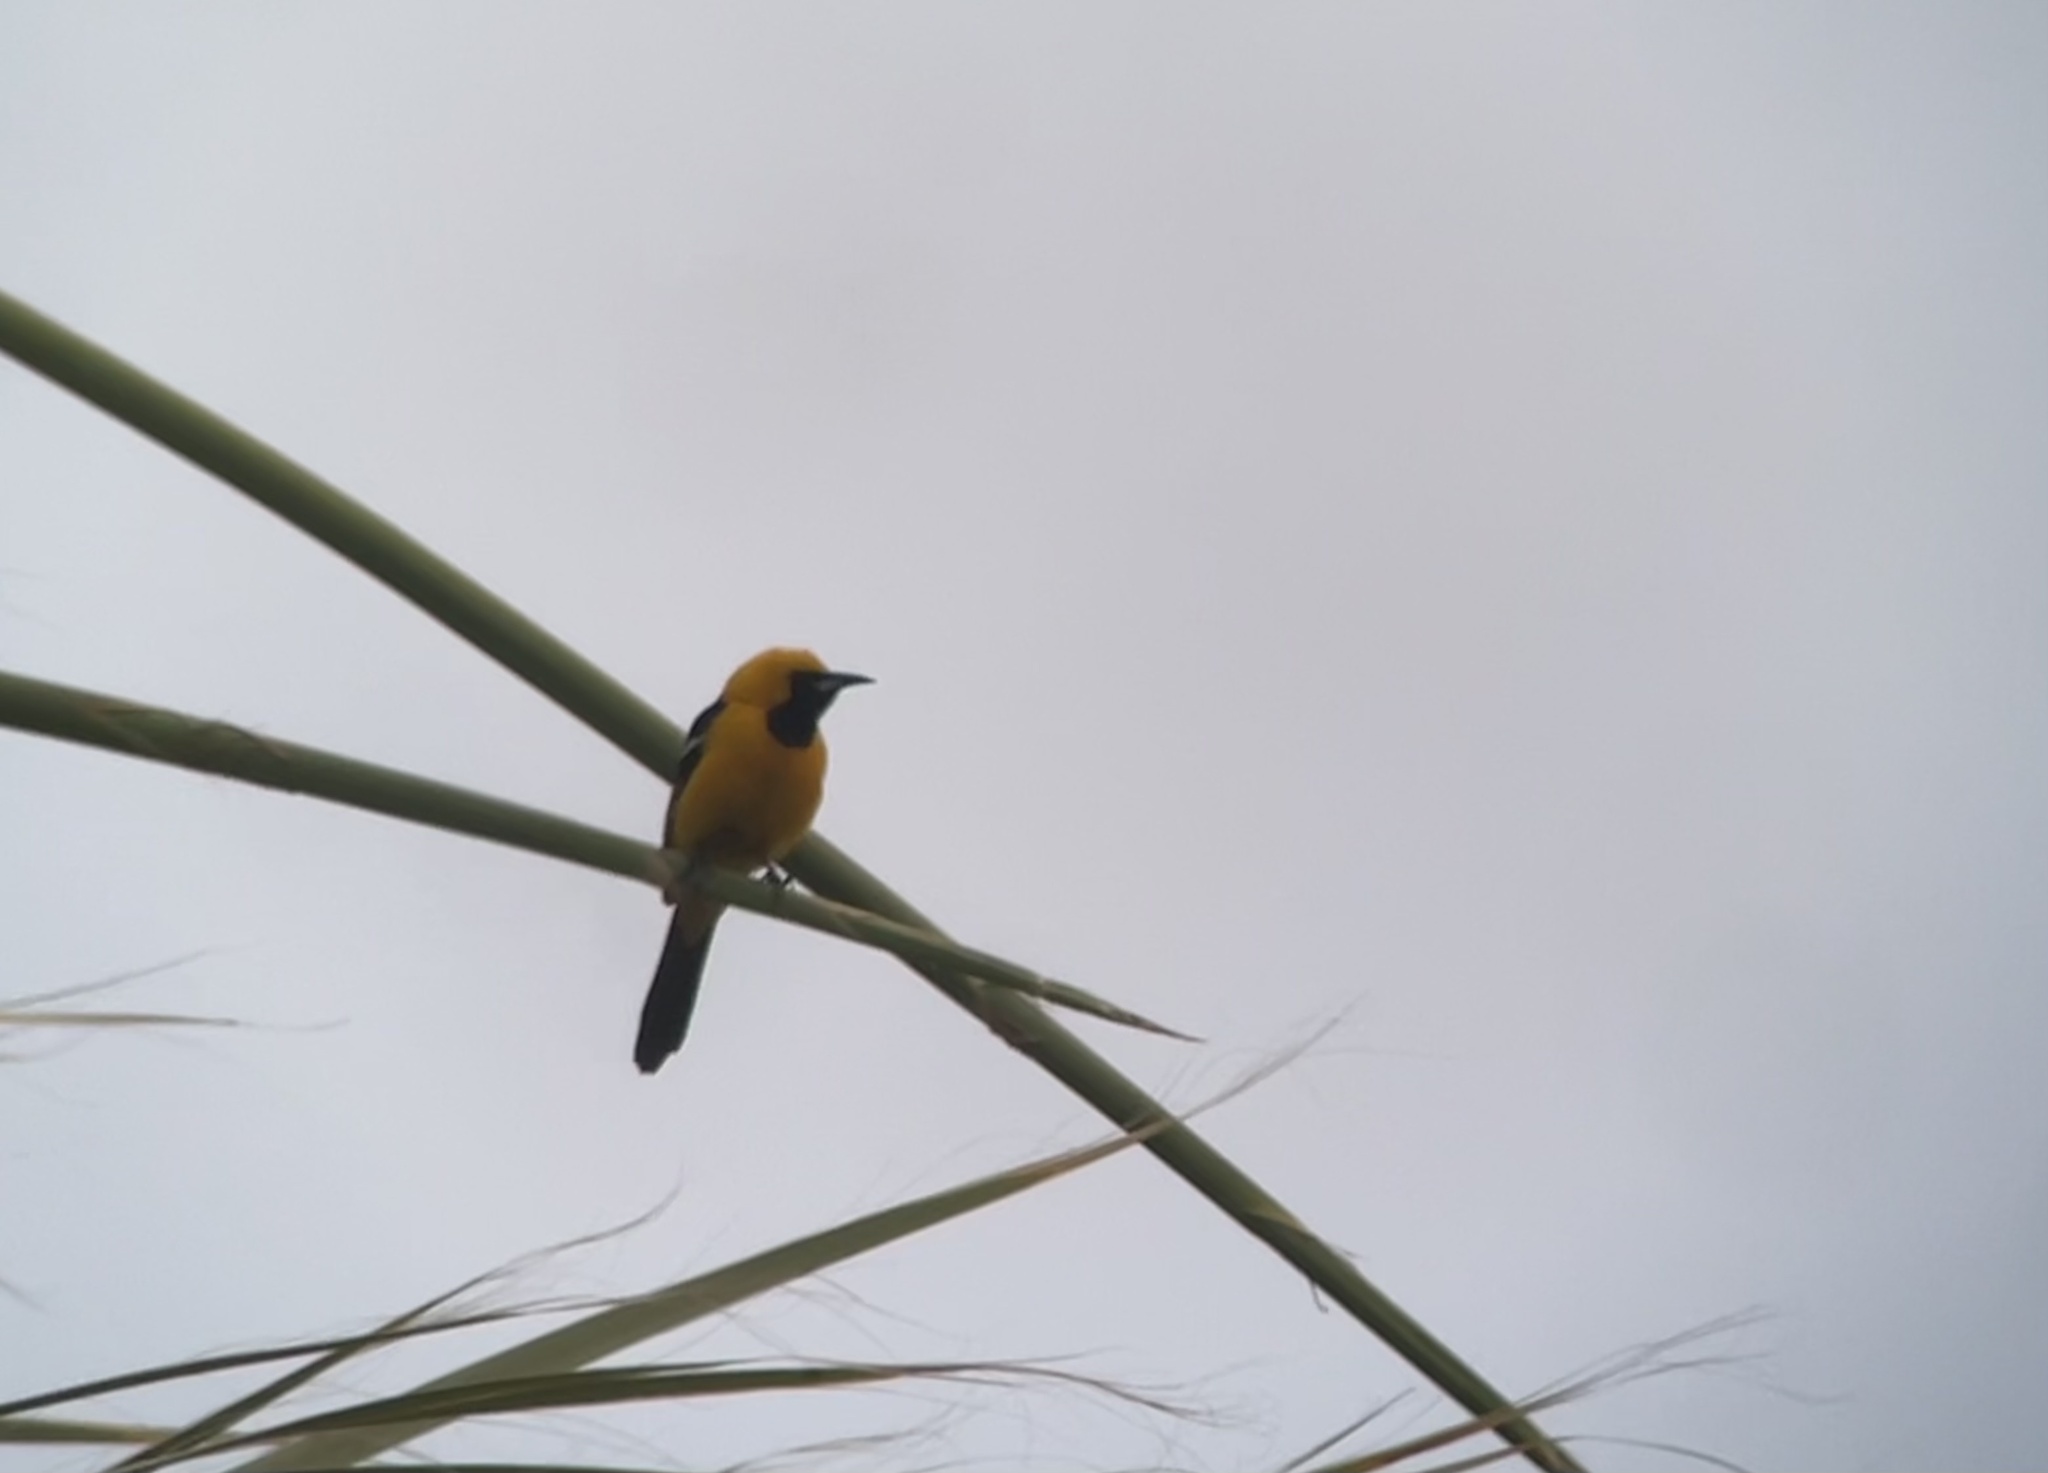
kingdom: Animalia
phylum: Chordata
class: Aves
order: Passeriformes
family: Icteridae
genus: Icterus
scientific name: Icterus cucullatus
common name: Hooded oriole
